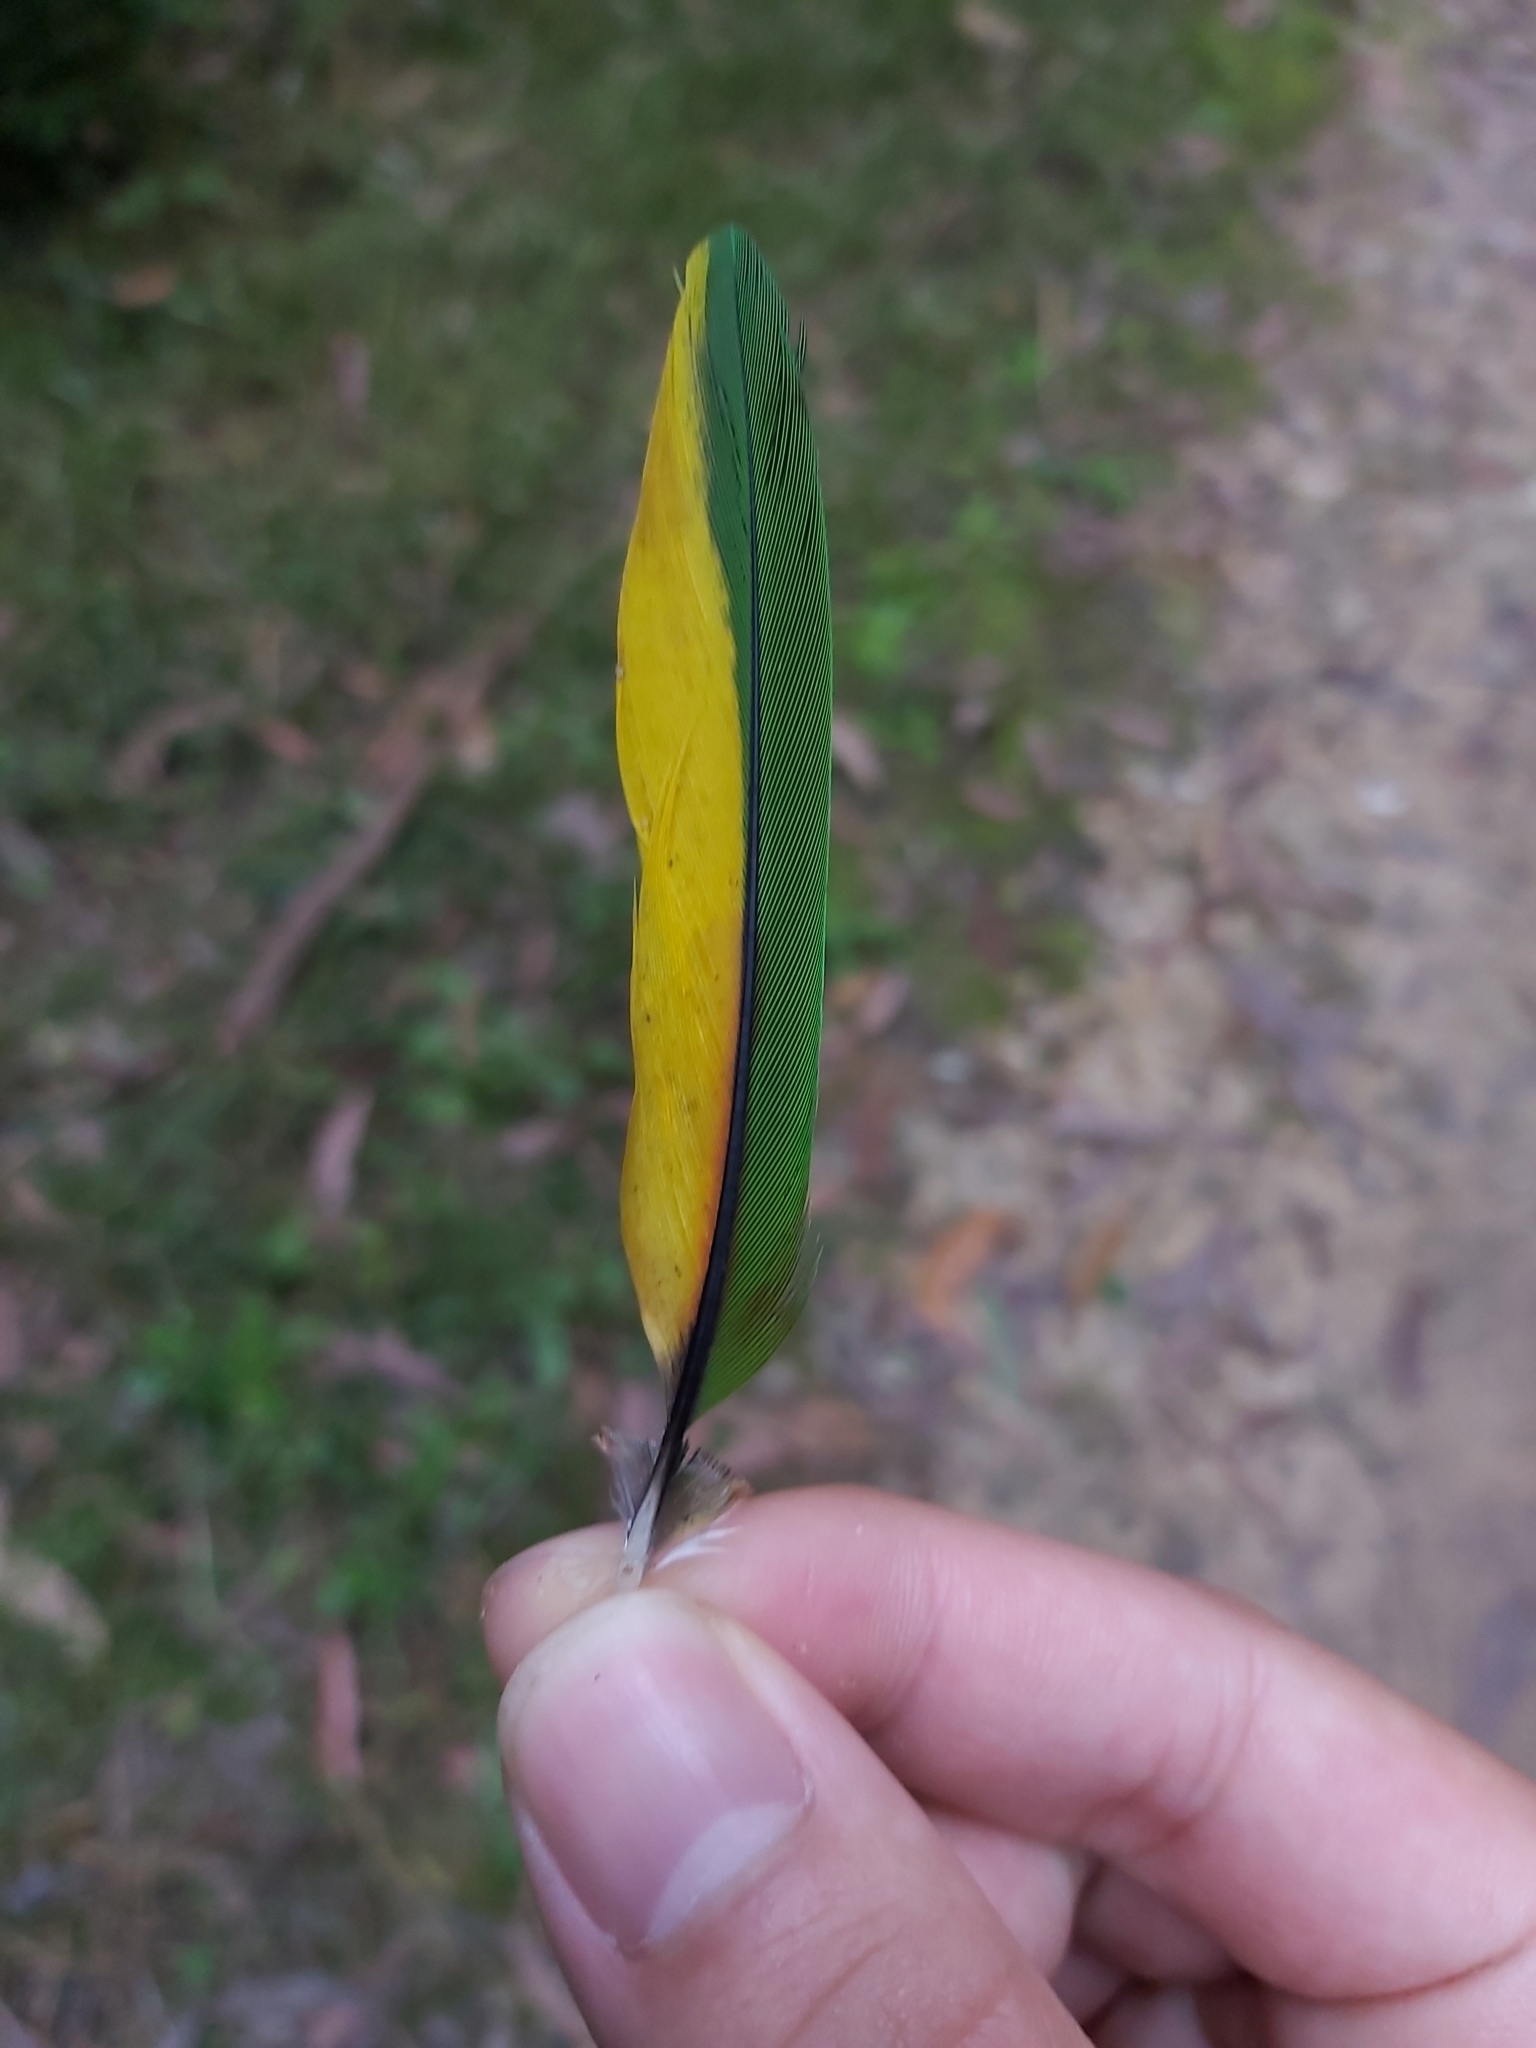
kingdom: Animalia
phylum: Chordata
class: Aves
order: Psittaciformes
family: Psittacidae
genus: Trichoglossus
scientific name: Trichoglossus haematodus
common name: Coconut lorikeet
